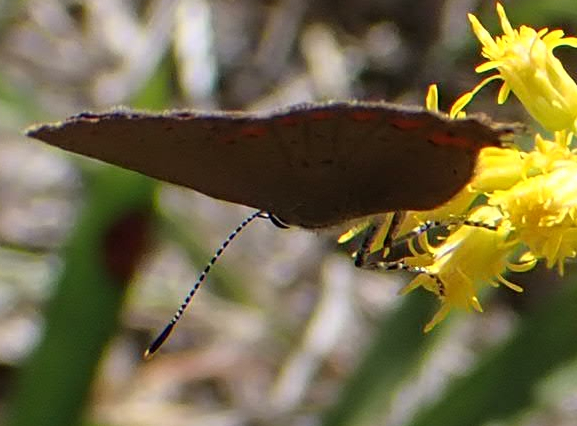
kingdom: Animalia
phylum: Arthropoda
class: Insecta
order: Lepidoptera
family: Lycaenidae
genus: Harkenclenus
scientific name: Harkenclenus titus
